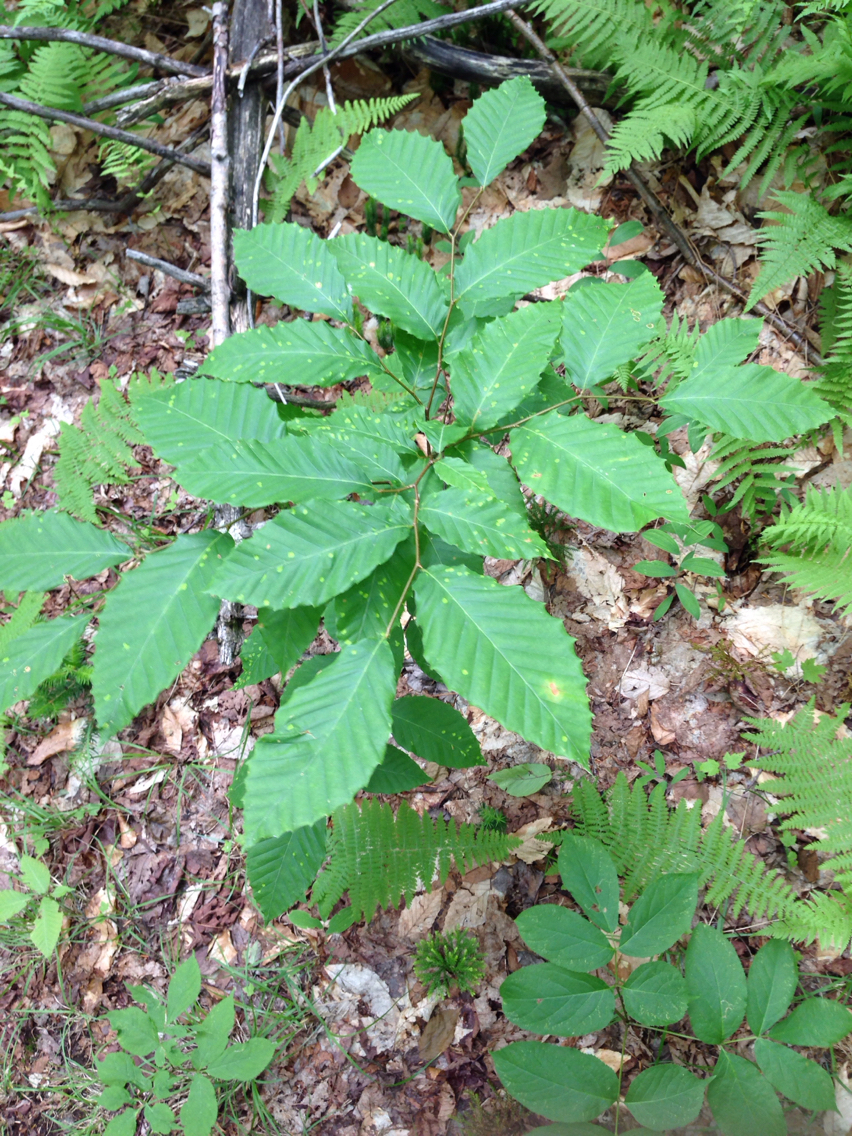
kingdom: Plantae
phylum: Tracheophyta
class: Magnoliopsida
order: Fagales
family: Fagaceae
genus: Fagus
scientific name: Fagus grandifolia
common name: American beech
